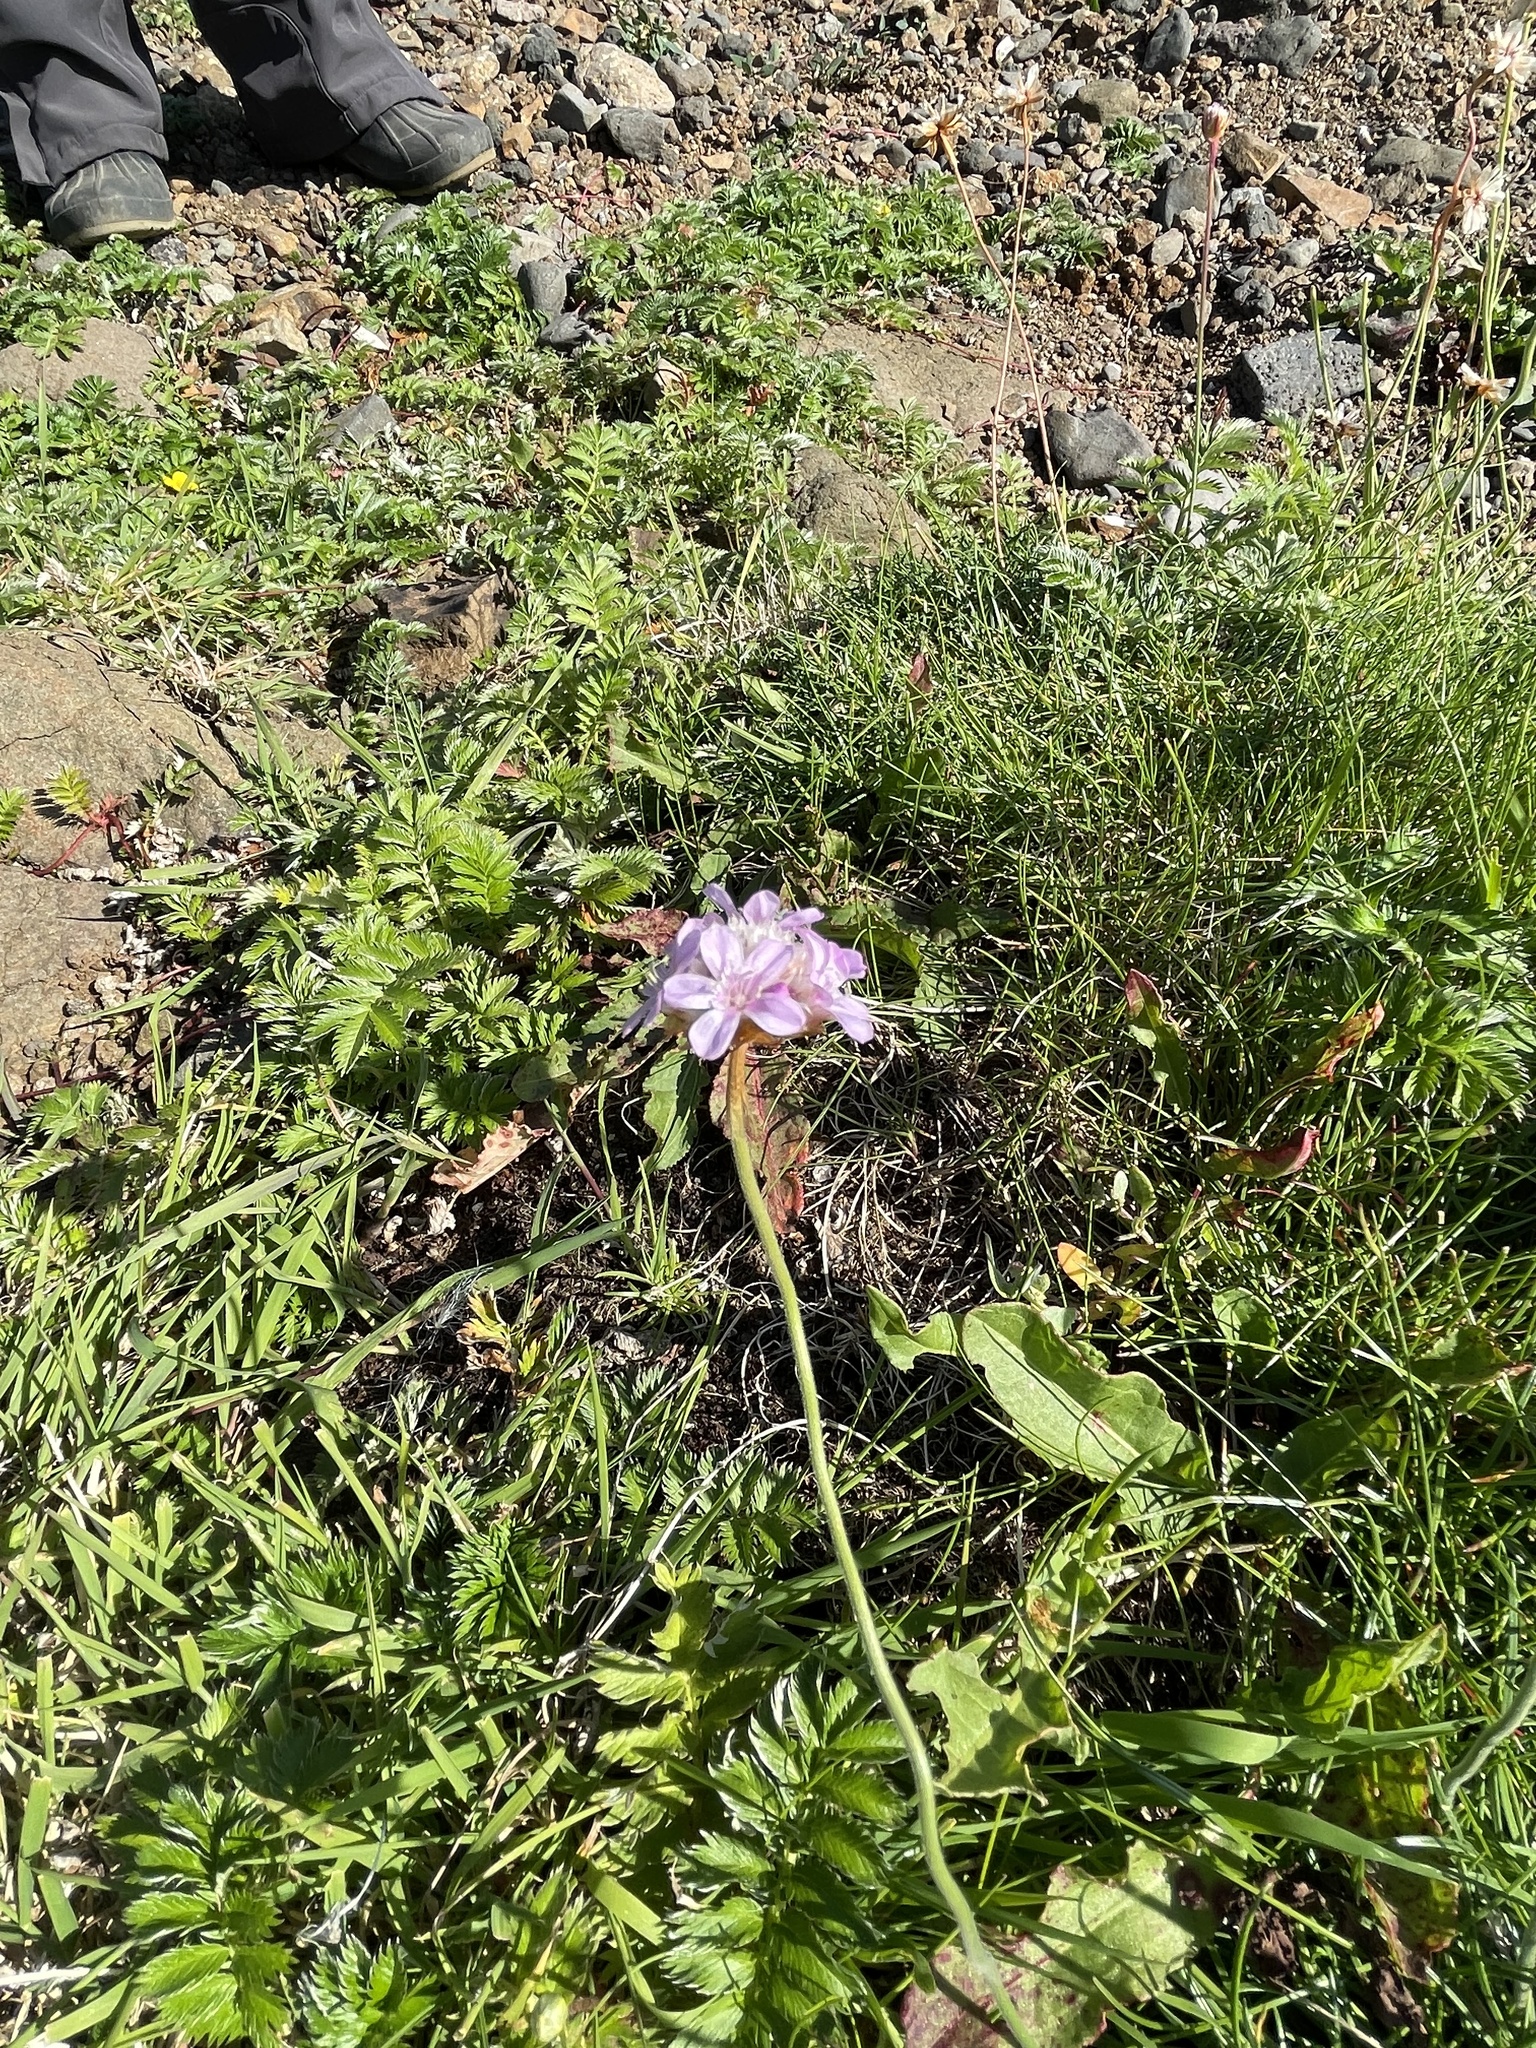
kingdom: Plantae
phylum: Tracheophyta
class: Magnoliopsida
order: Caryophyllales
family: Plumbaginaceae
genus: Armeria
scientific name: Armeria maritima
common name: Thrift
